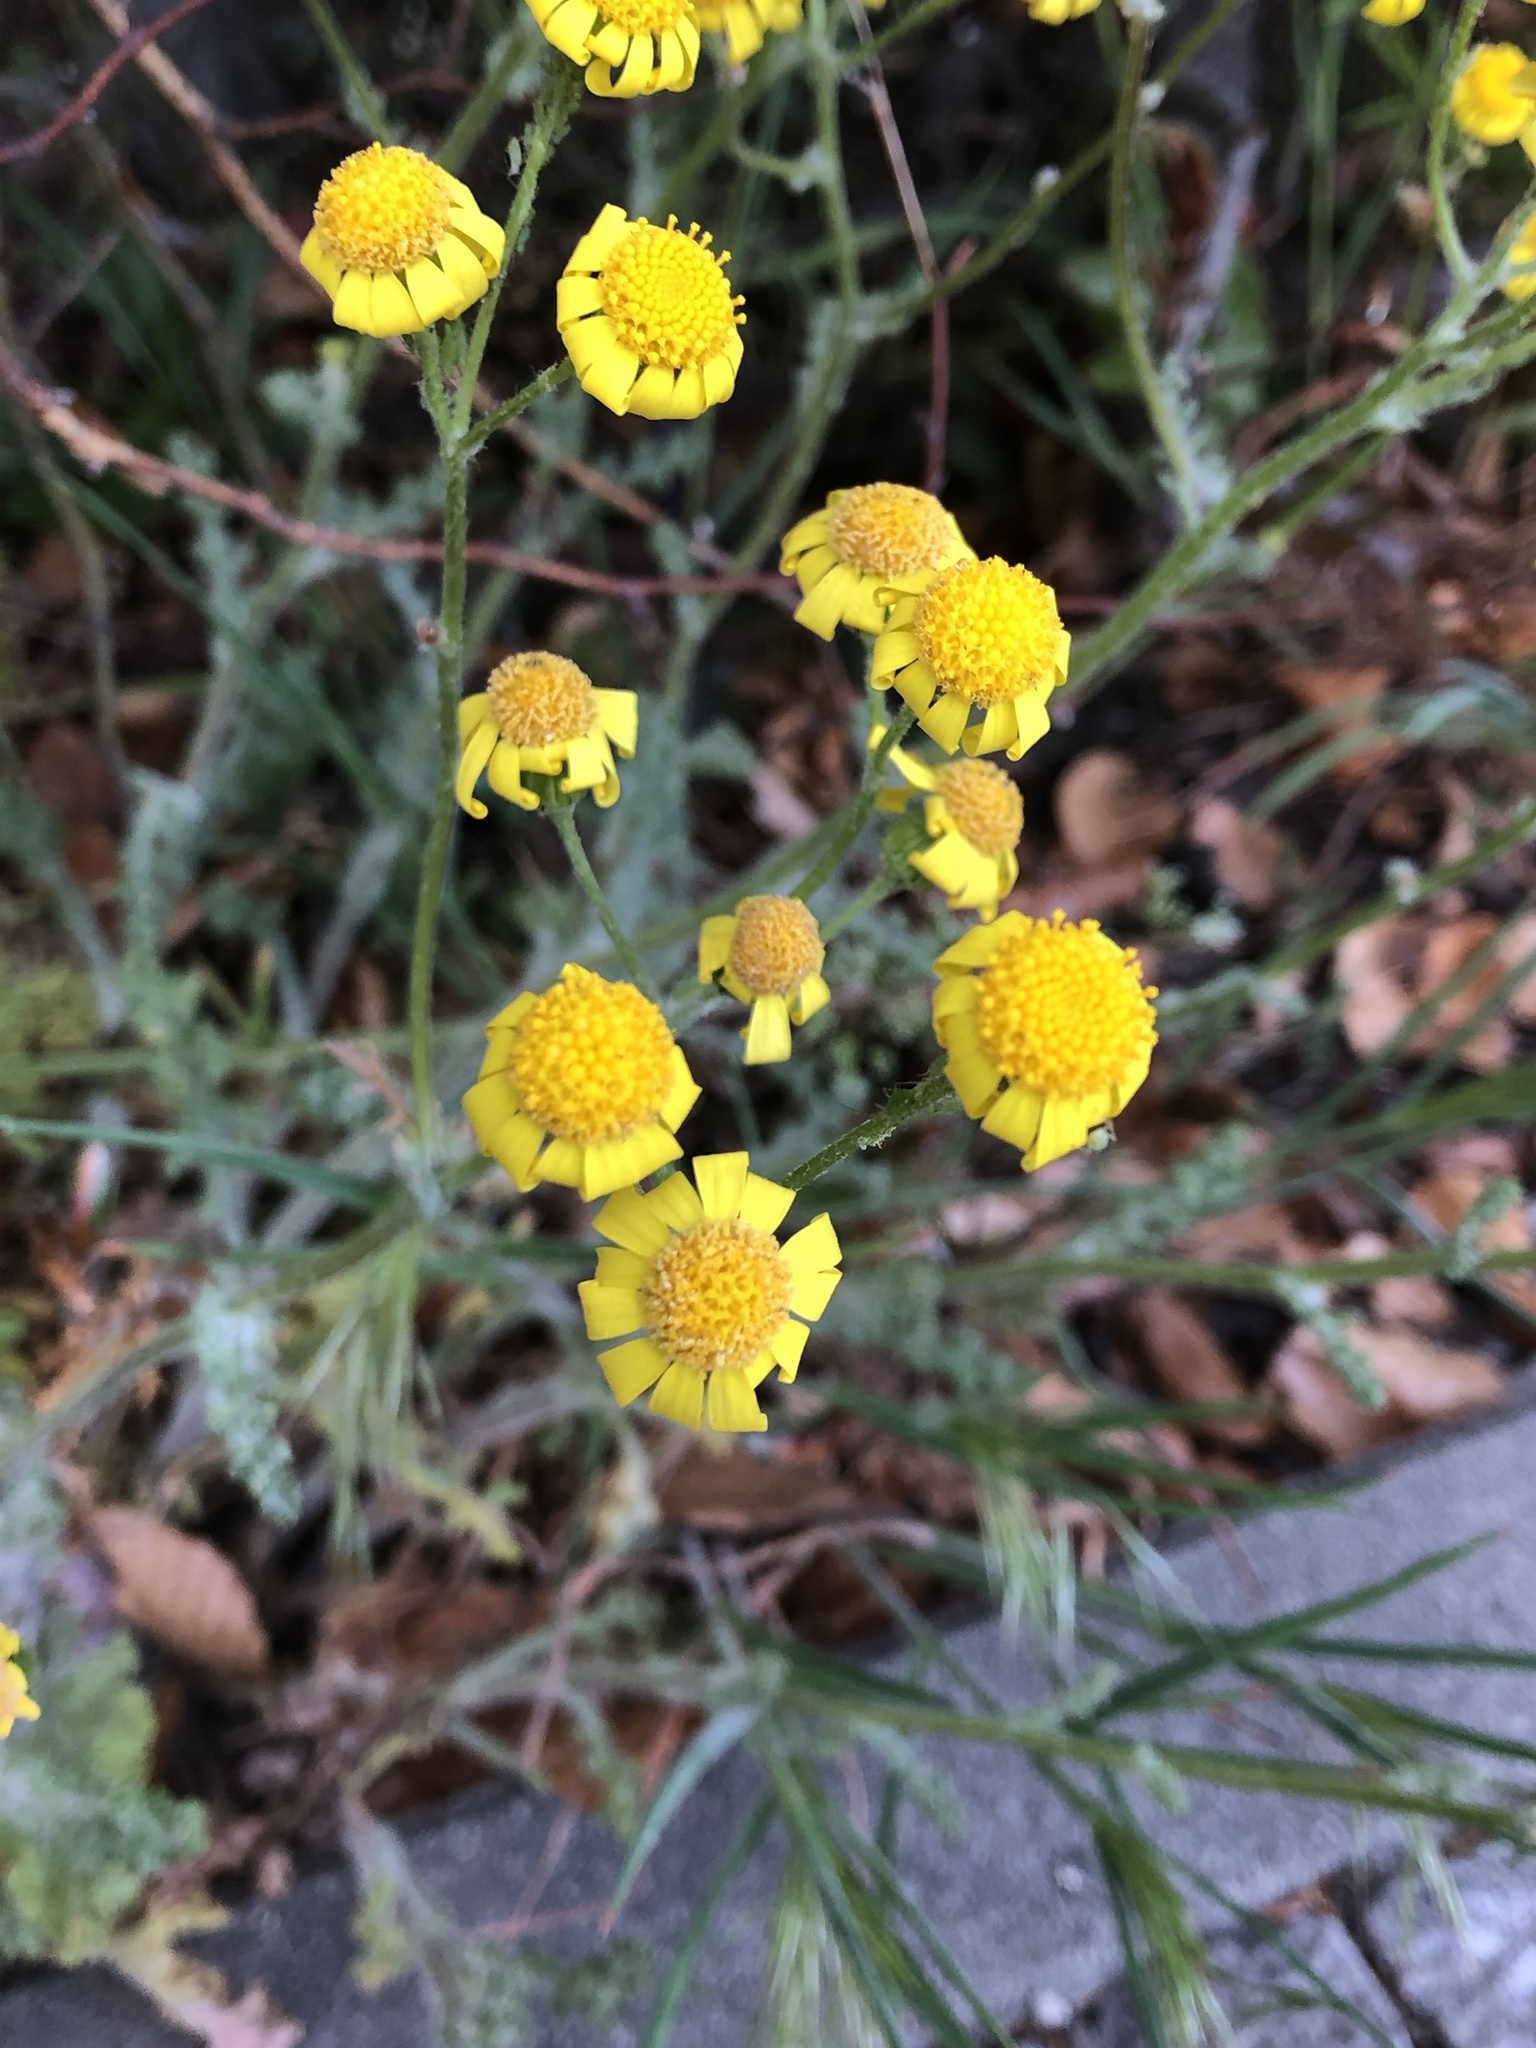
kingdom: Plantae
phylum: Tracheophyta
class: Magnoliopsida
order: Asterales
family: Asteraceae
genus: Senecio
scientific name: Senecio vernalis
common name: Eastern groundsel
